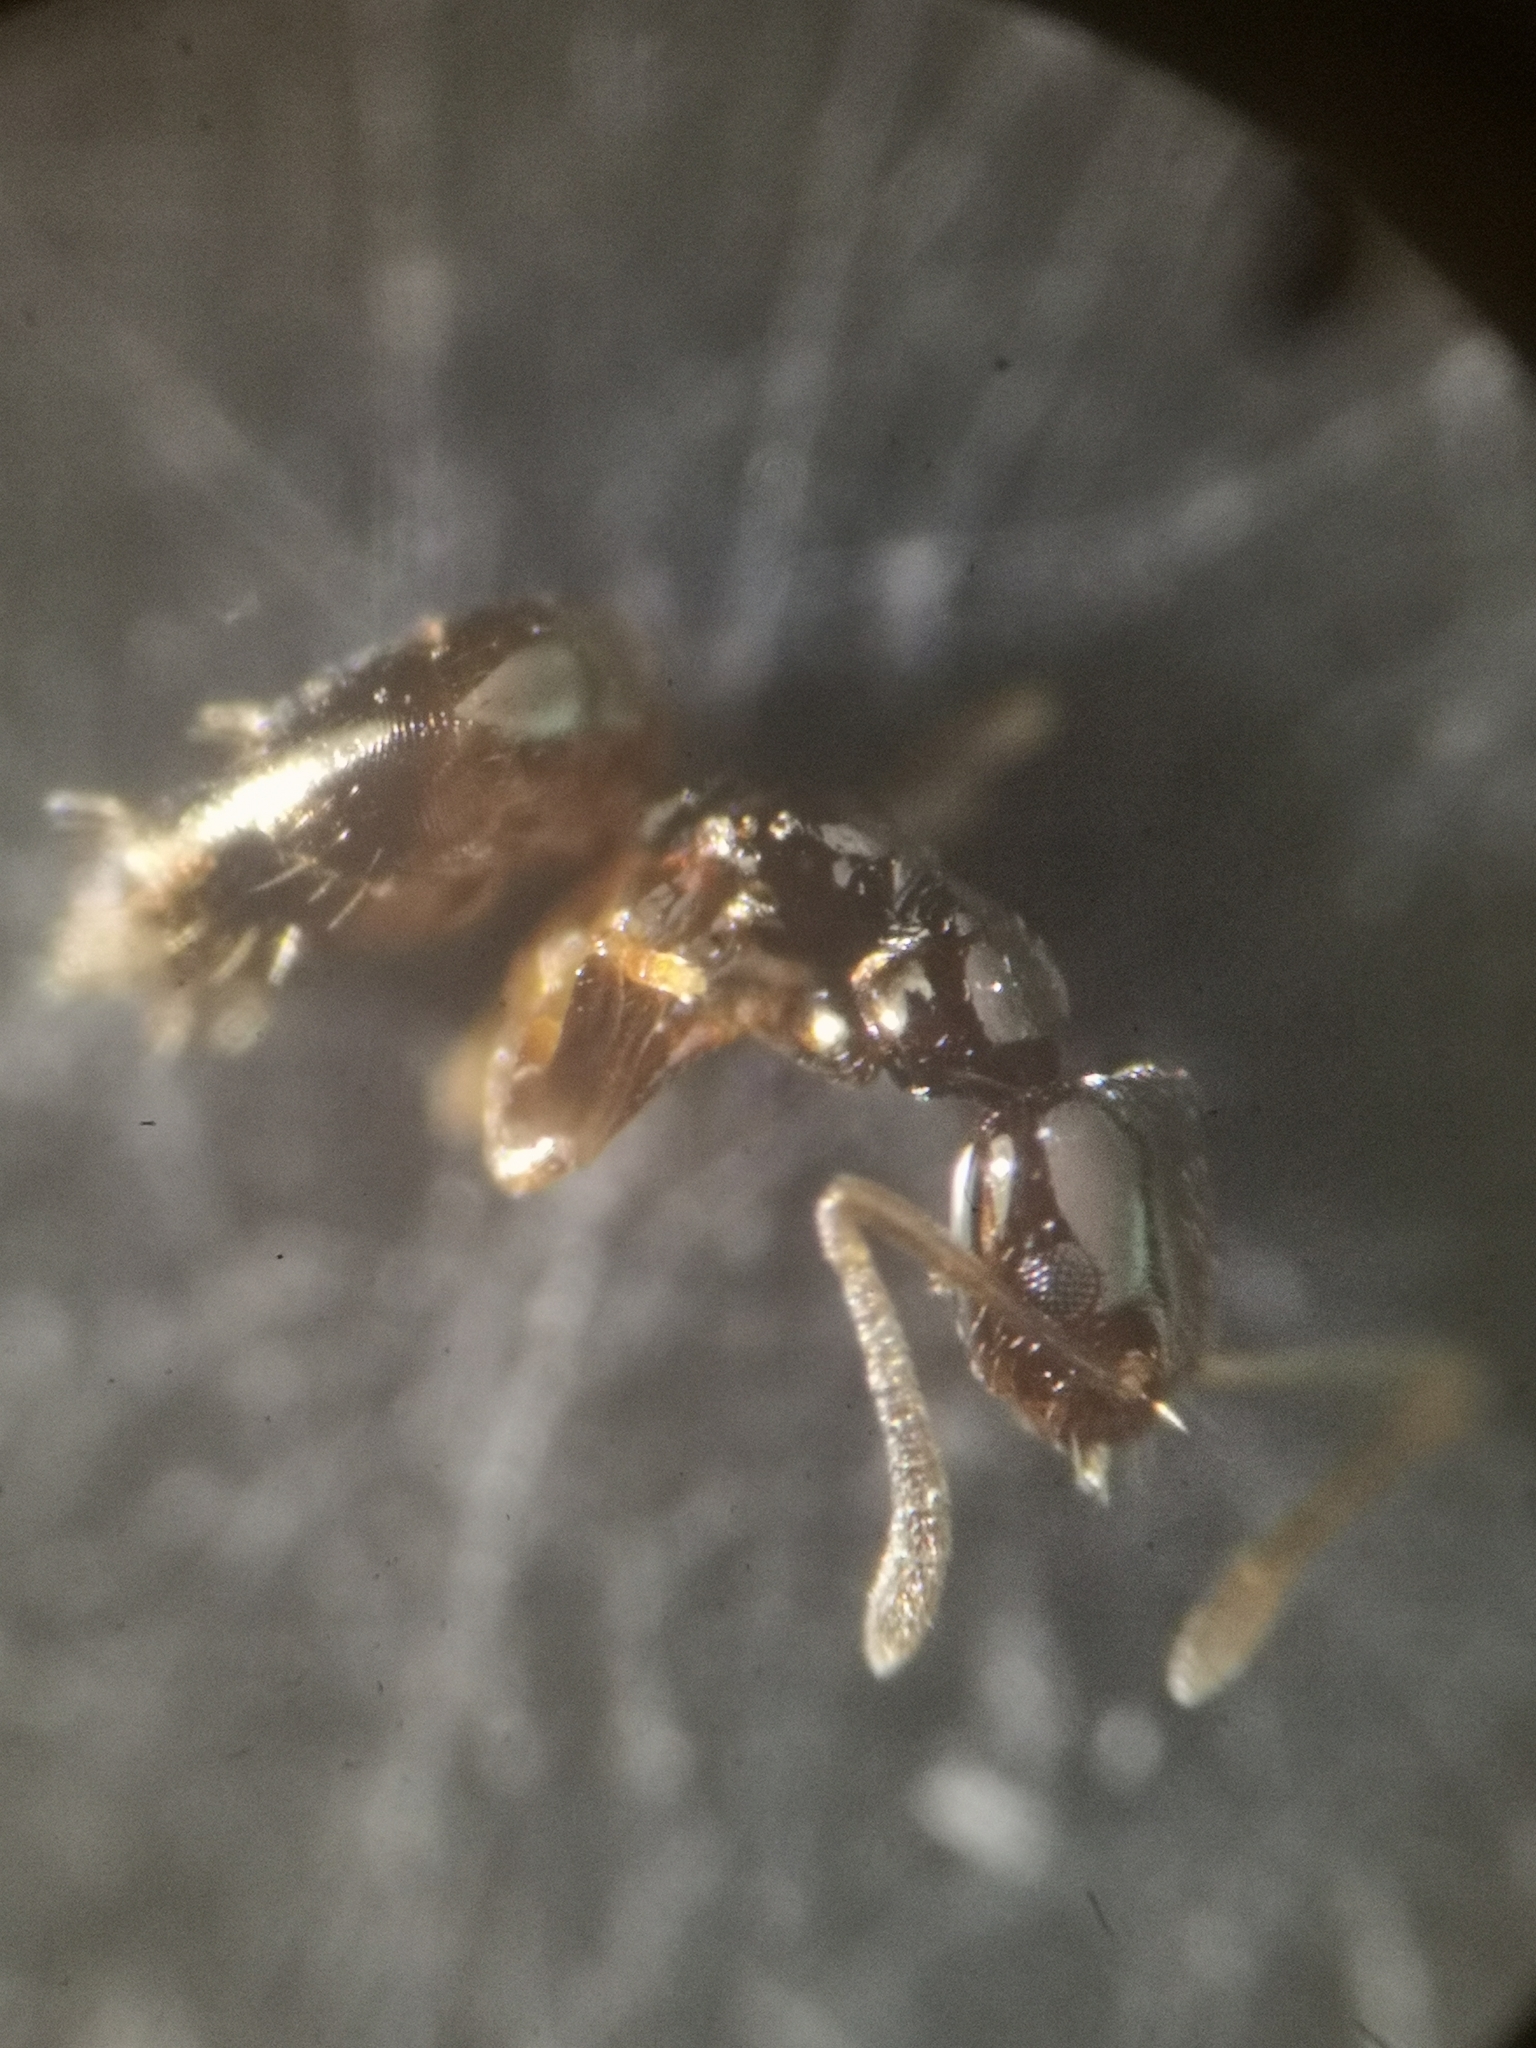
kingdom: Animalia
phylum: Arthropoda
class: Insecta
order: Hymenoptera
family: Formicidae
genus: Plagiolepis
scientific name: Plagiolepis pygmaea
